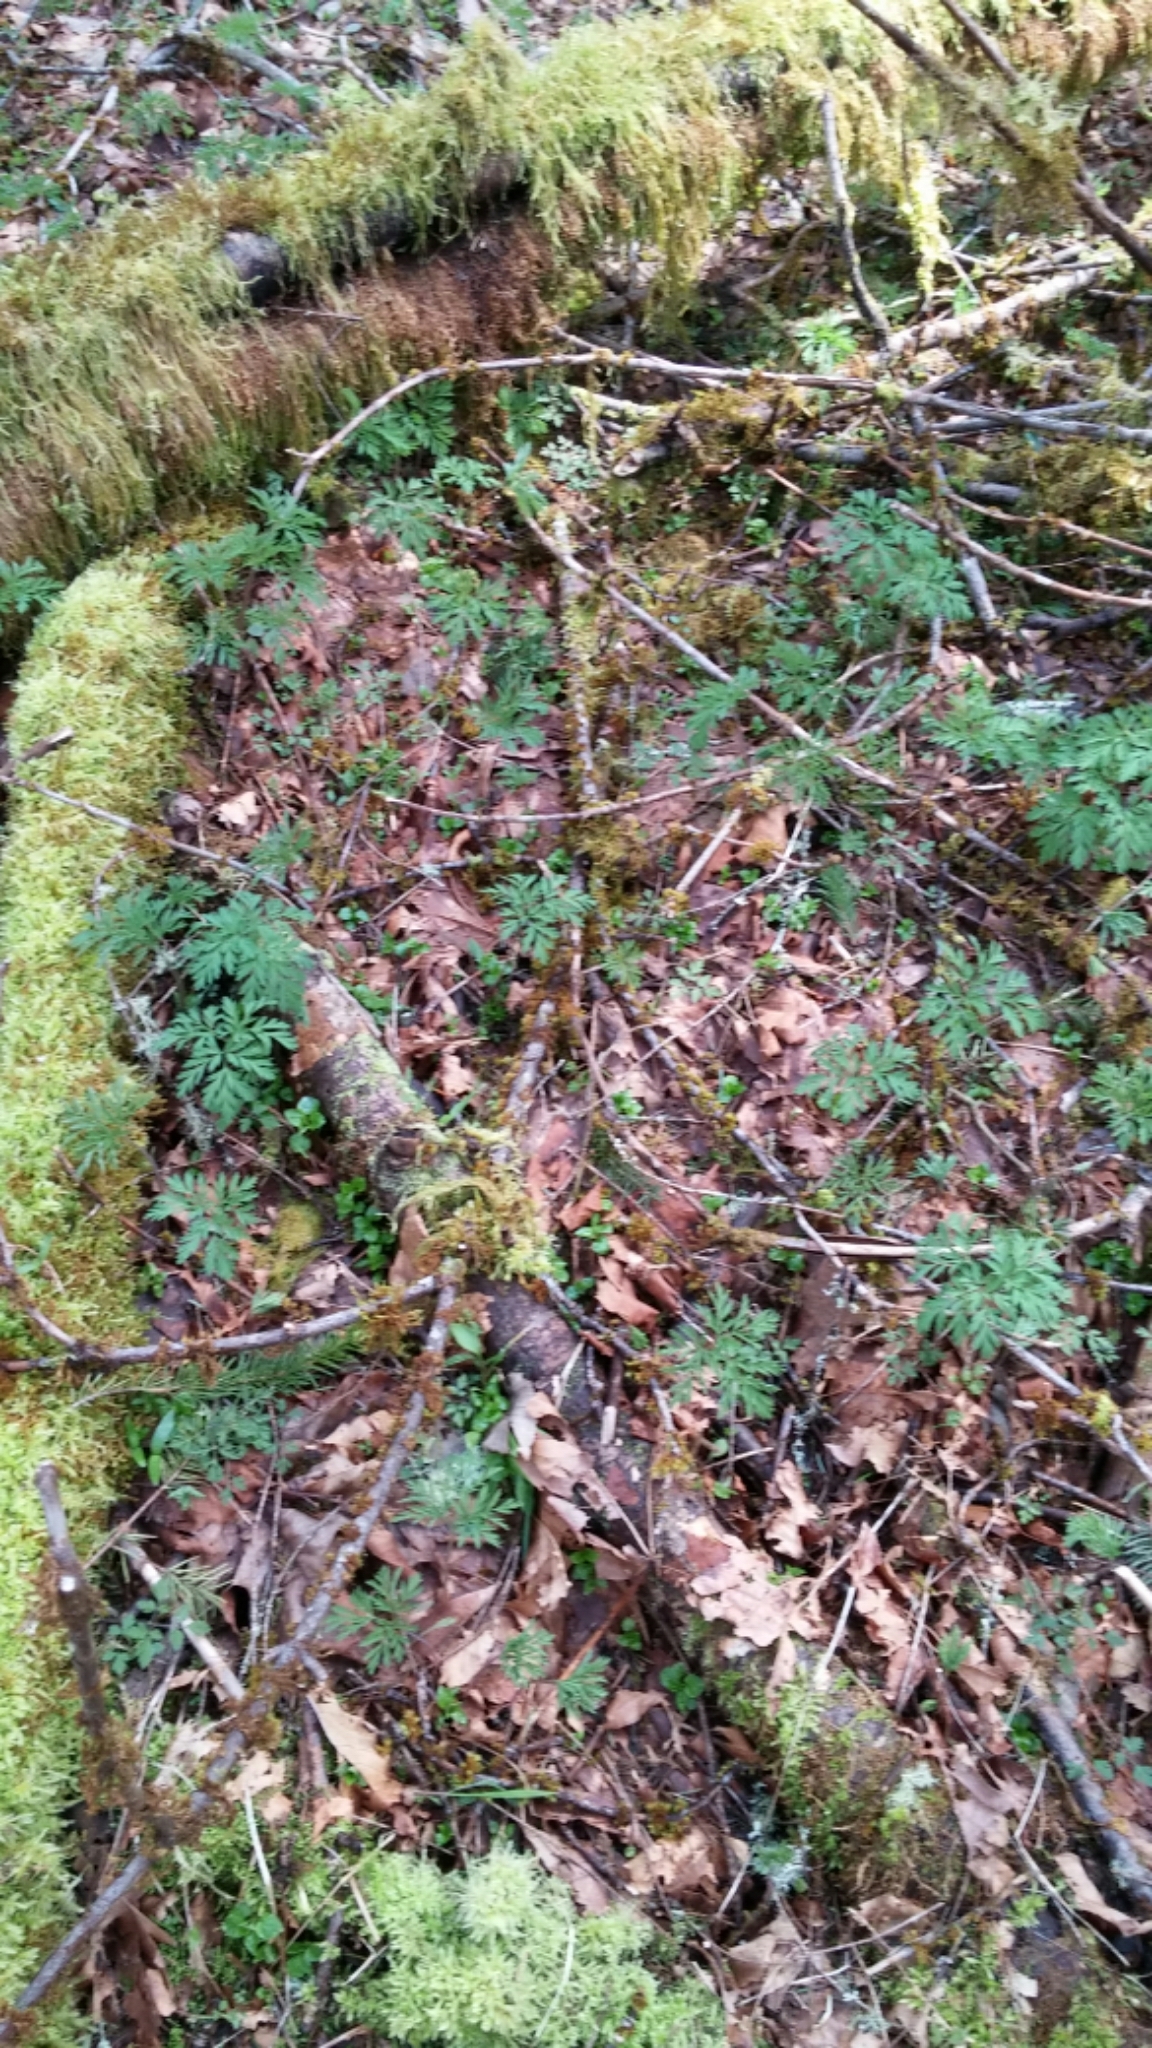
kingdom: Plantae
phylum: Tracheophyta
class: Magnoliopsida
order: Ranunculales
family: Papaveraceae
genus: Dicentra
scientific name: Dicentra formosa
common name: Bleeding-heart
